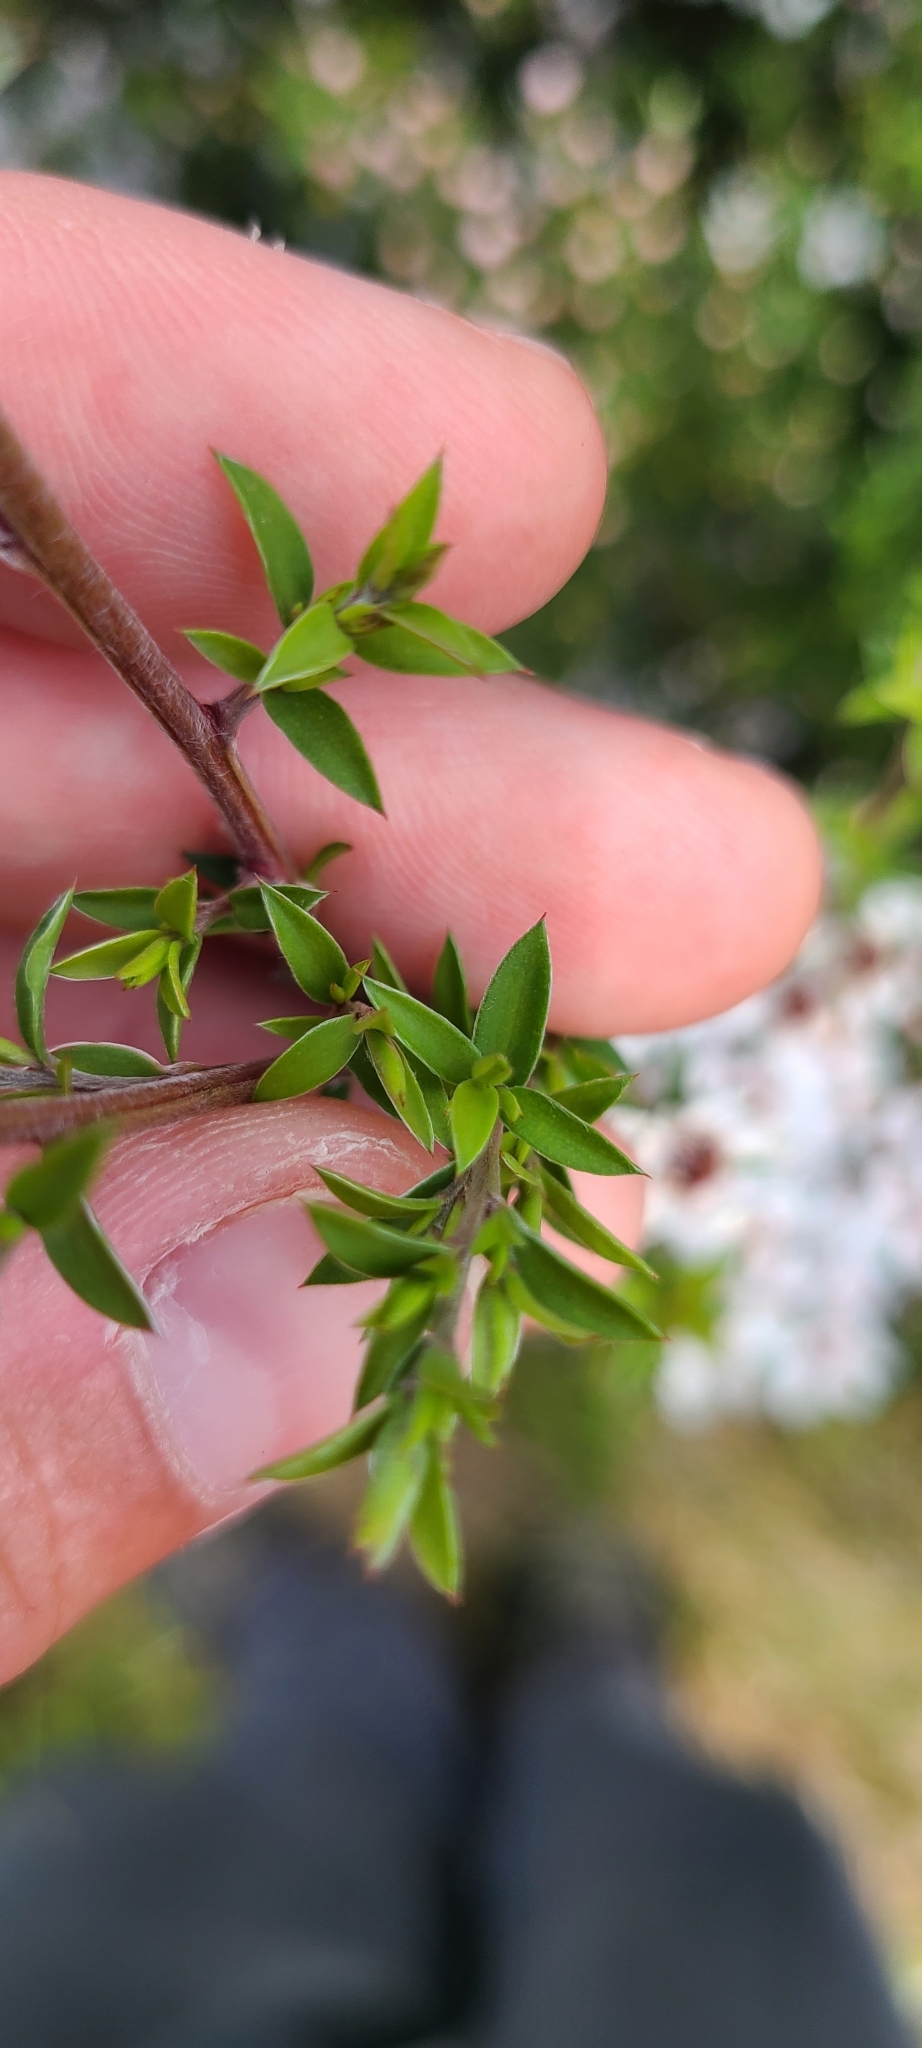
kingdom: Plantae
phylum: Tracheophyta
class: Magnoliopsida
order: Myrtales
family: Myrtaceae
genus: Leptospermum
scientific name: Leptospermum scoparium
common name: Broom tea-tree
